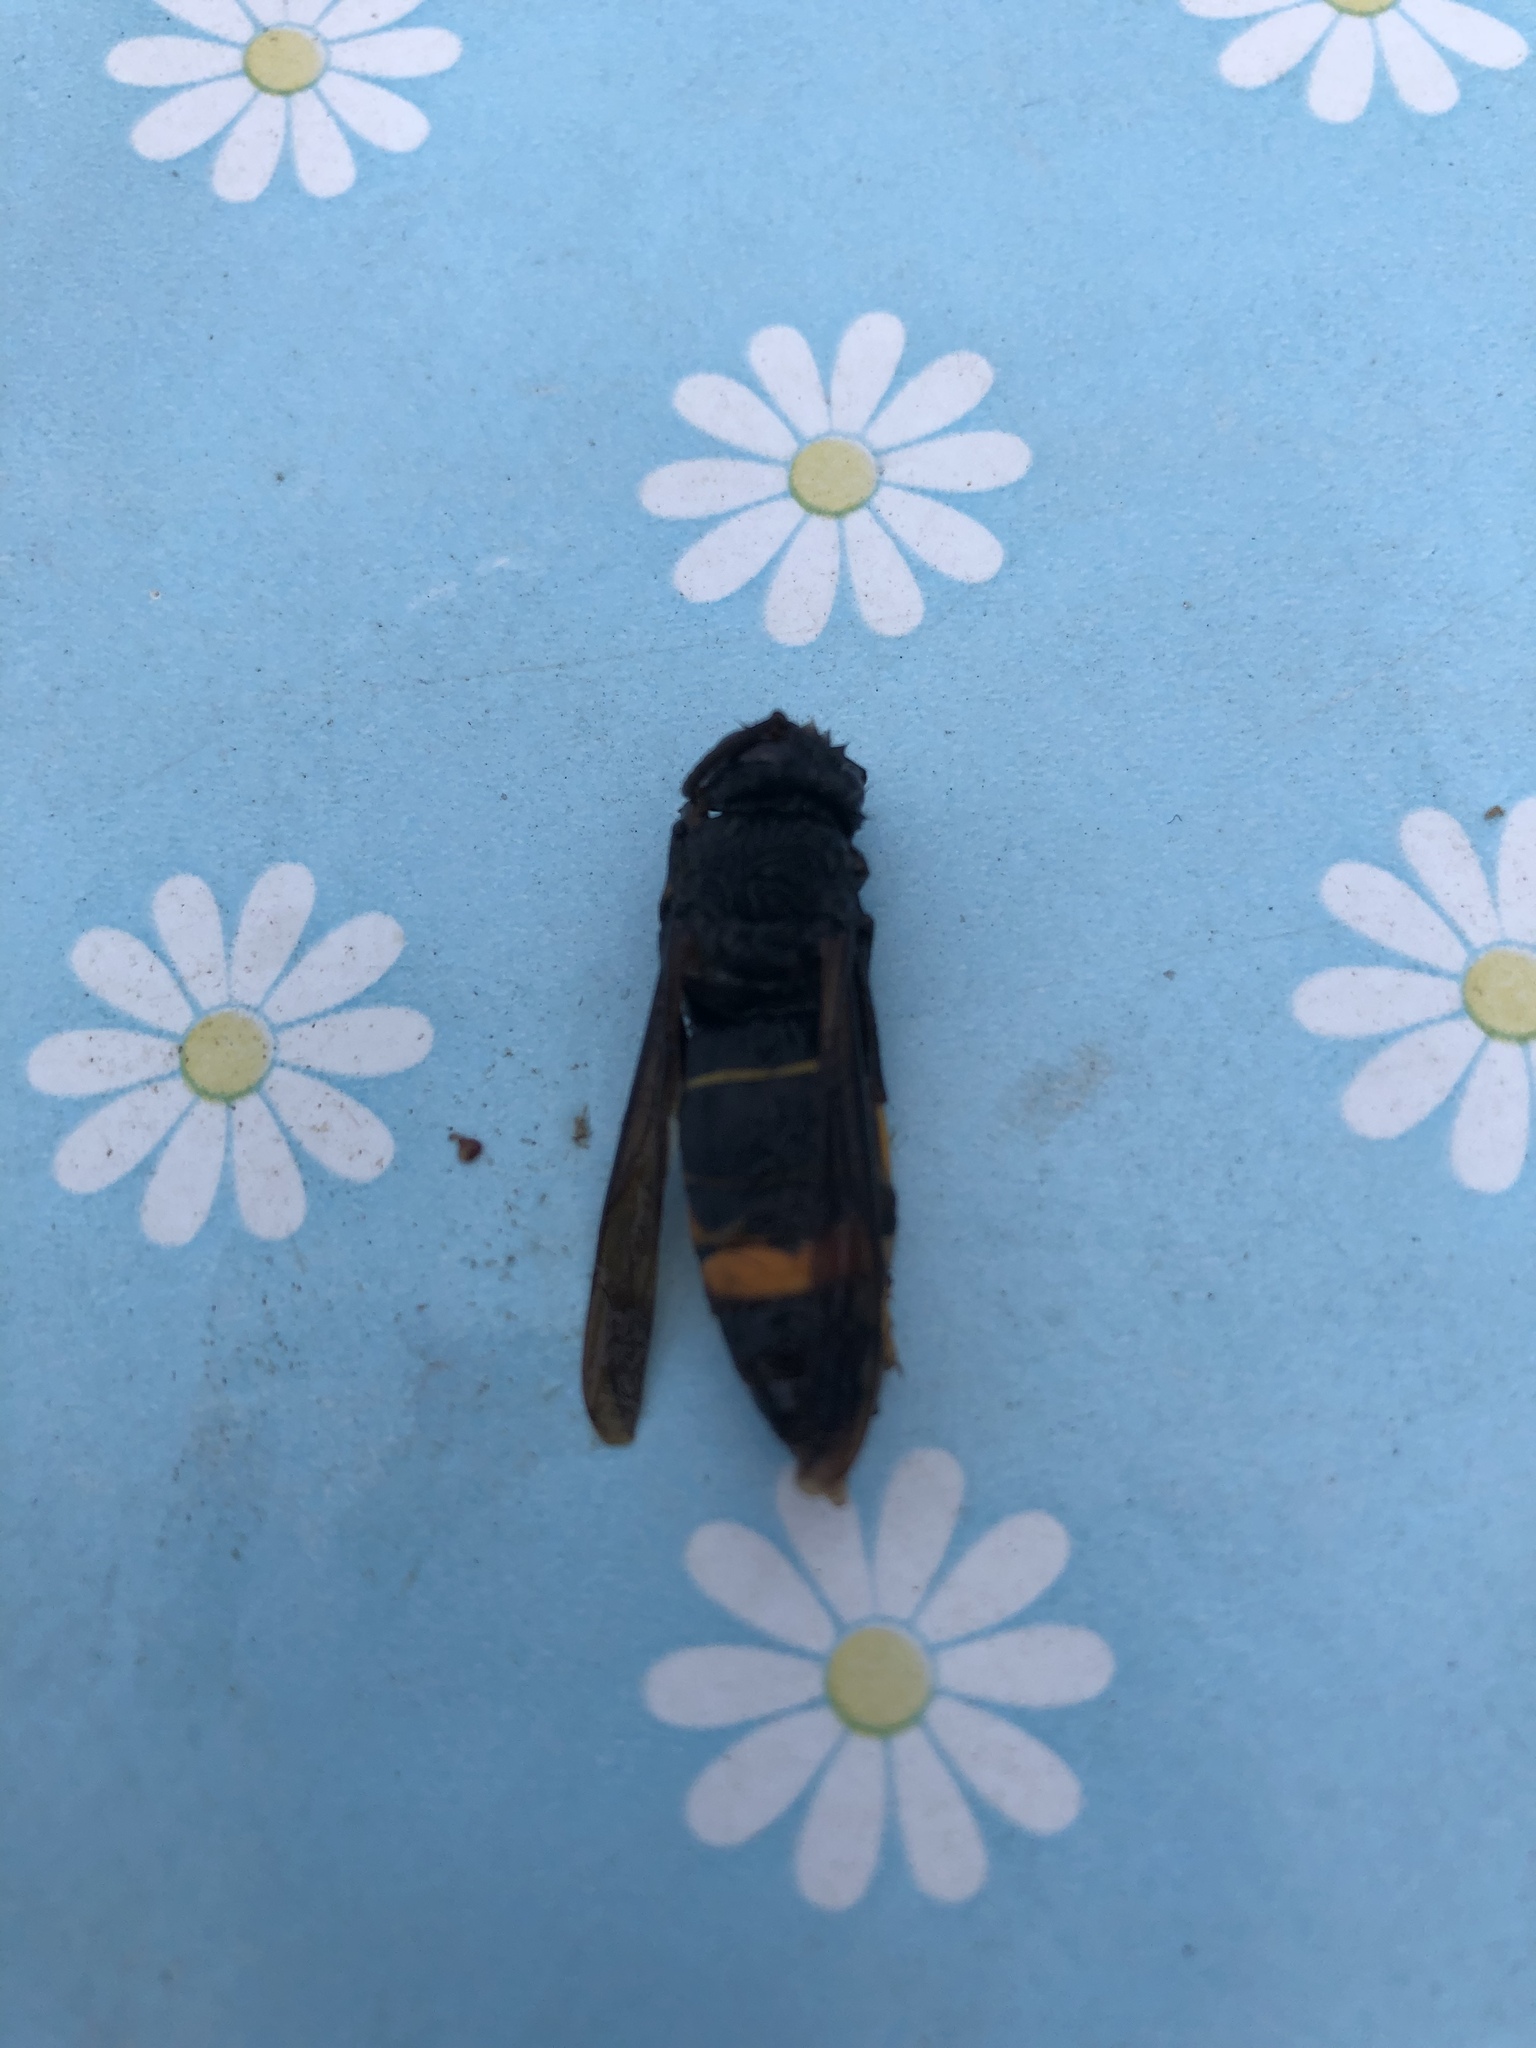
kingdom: Animalia
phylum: Arthropoda
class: Insecta
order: Hymenoptera
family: Vespidae
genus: Vespa
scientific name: Vespa velutina
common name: Asian hornet
